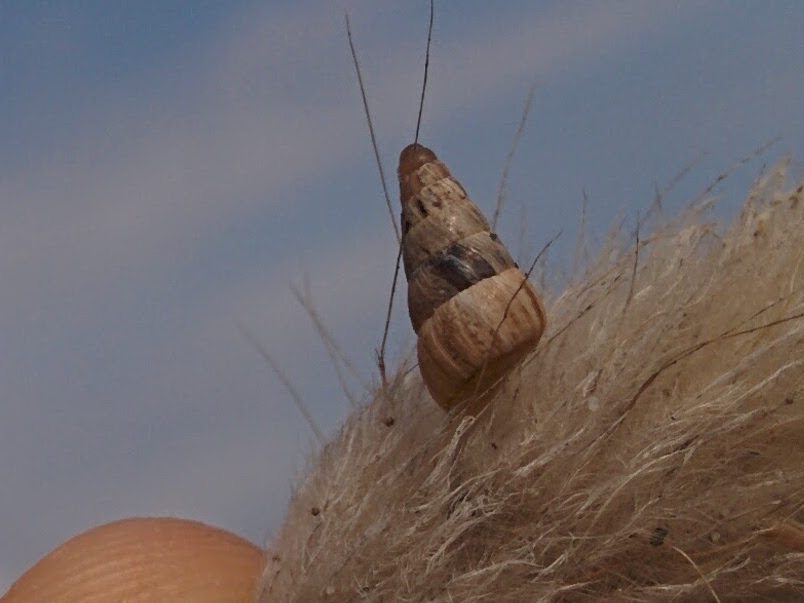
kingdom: Animalia
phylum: Mollusca
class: Gastropoda
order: Stylommatophora
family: Geomitridae
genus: Cochlicella
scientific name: Cochlicella barbara
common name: Potbellied helicellid
